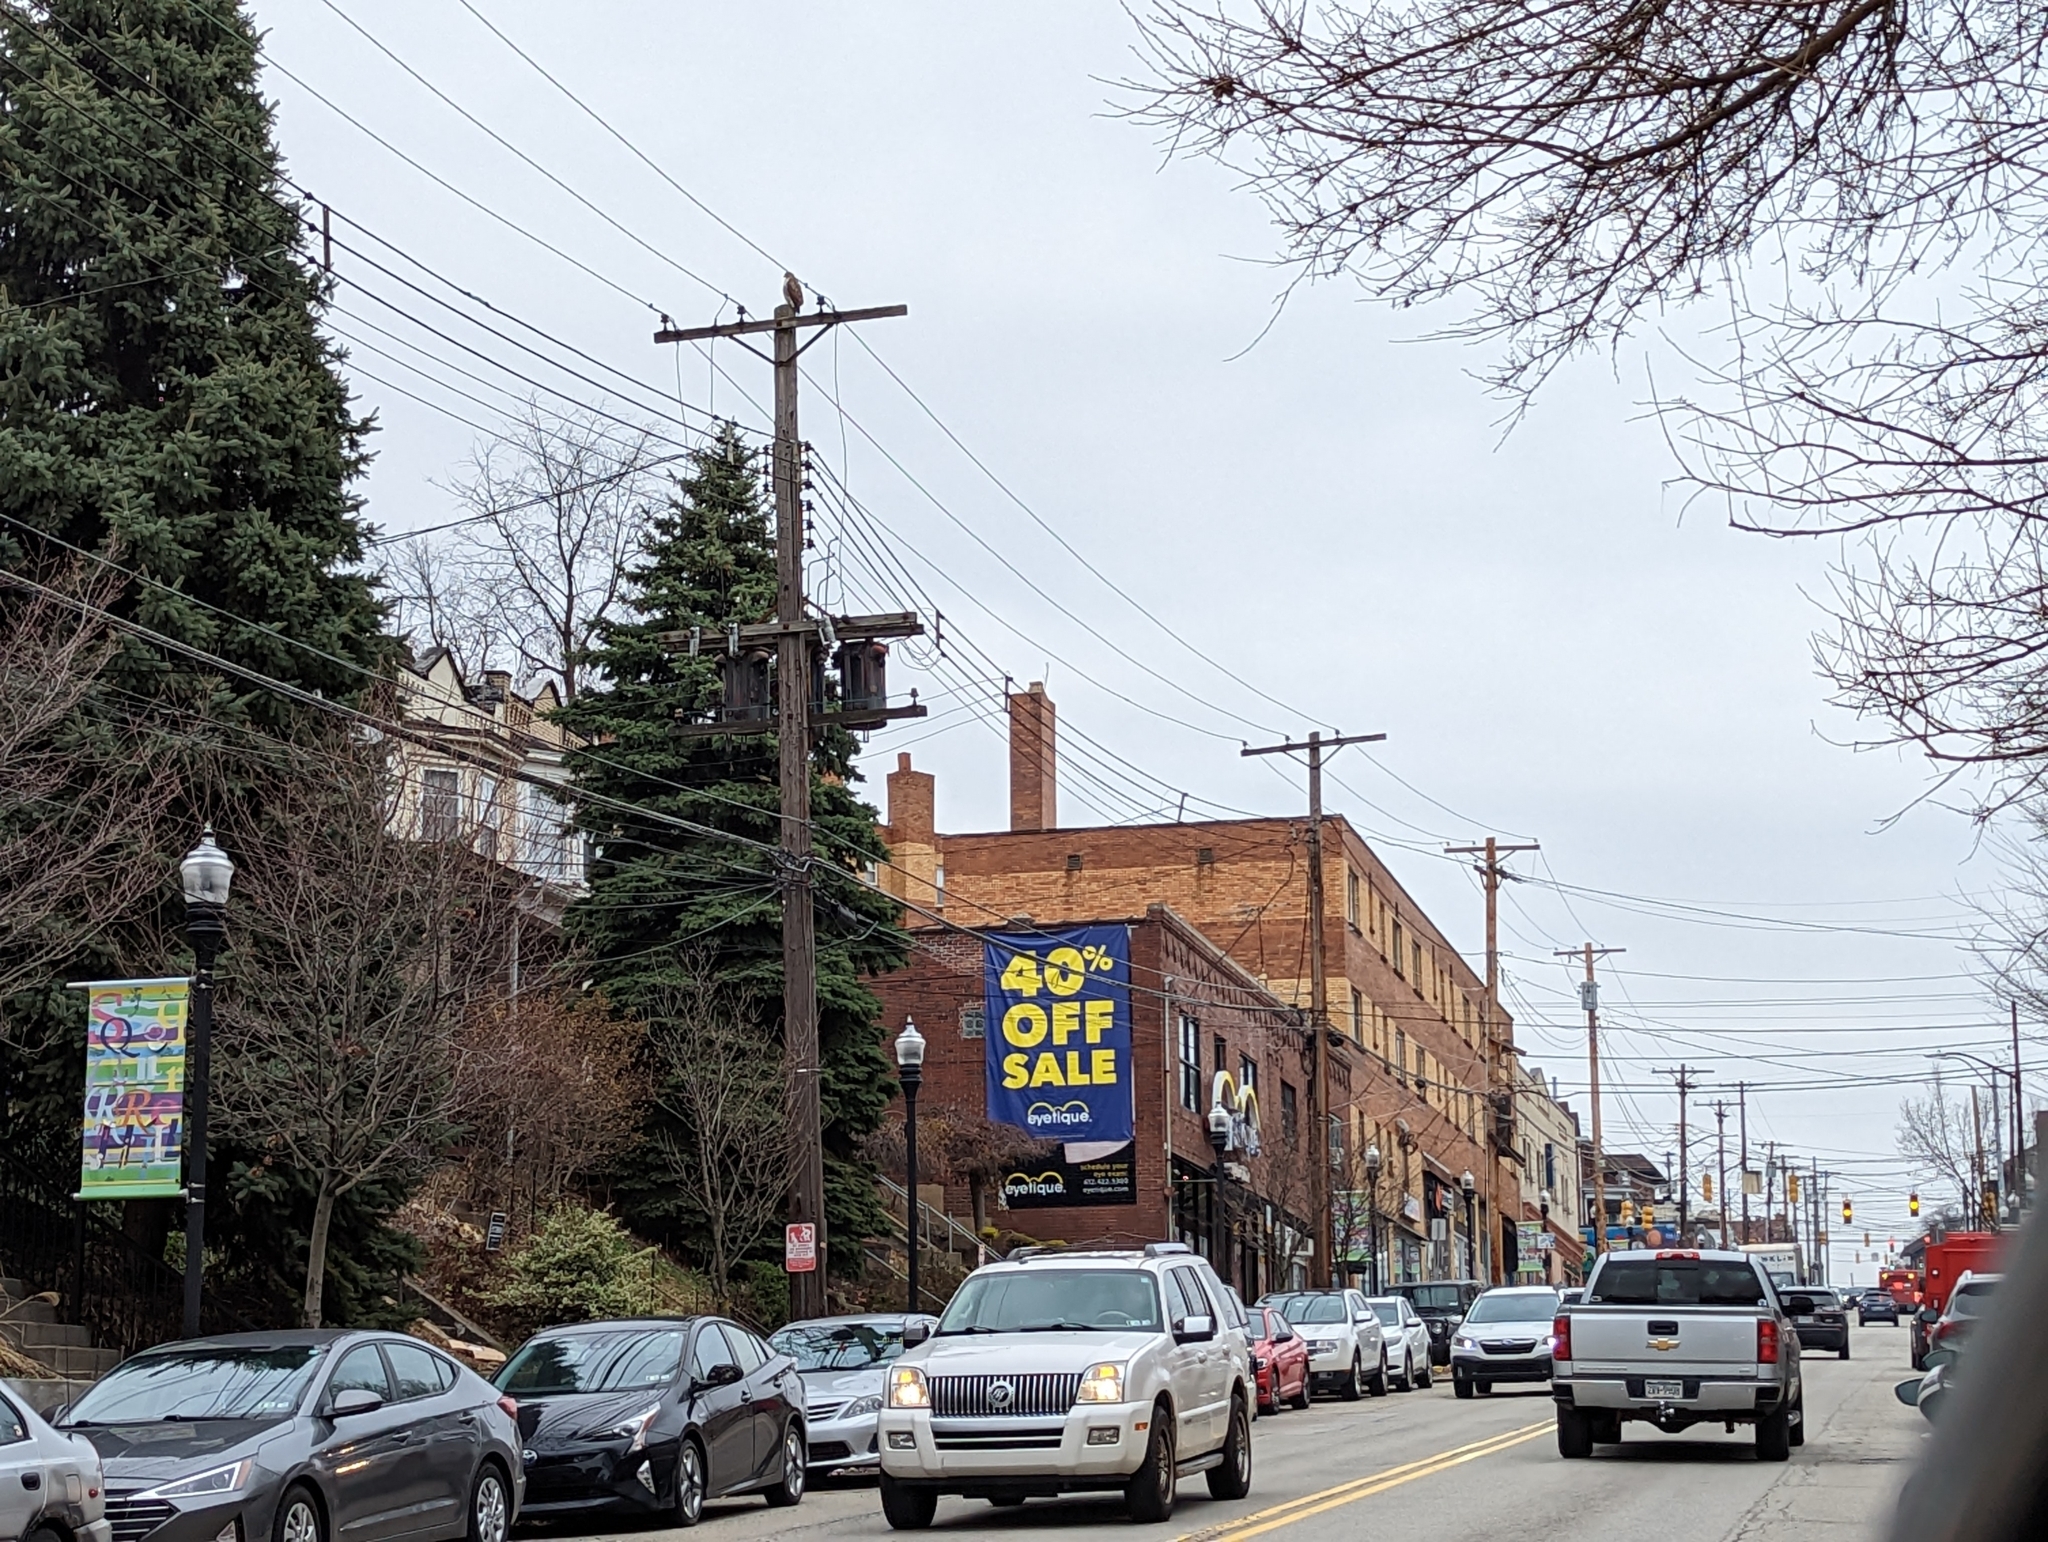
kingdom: Animalia
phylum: Chordata
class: Aves
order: Accipitriformes
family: Accipitridae
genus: Buteo
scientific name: Buteo jamaicensis
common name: Red-tailed hawk
